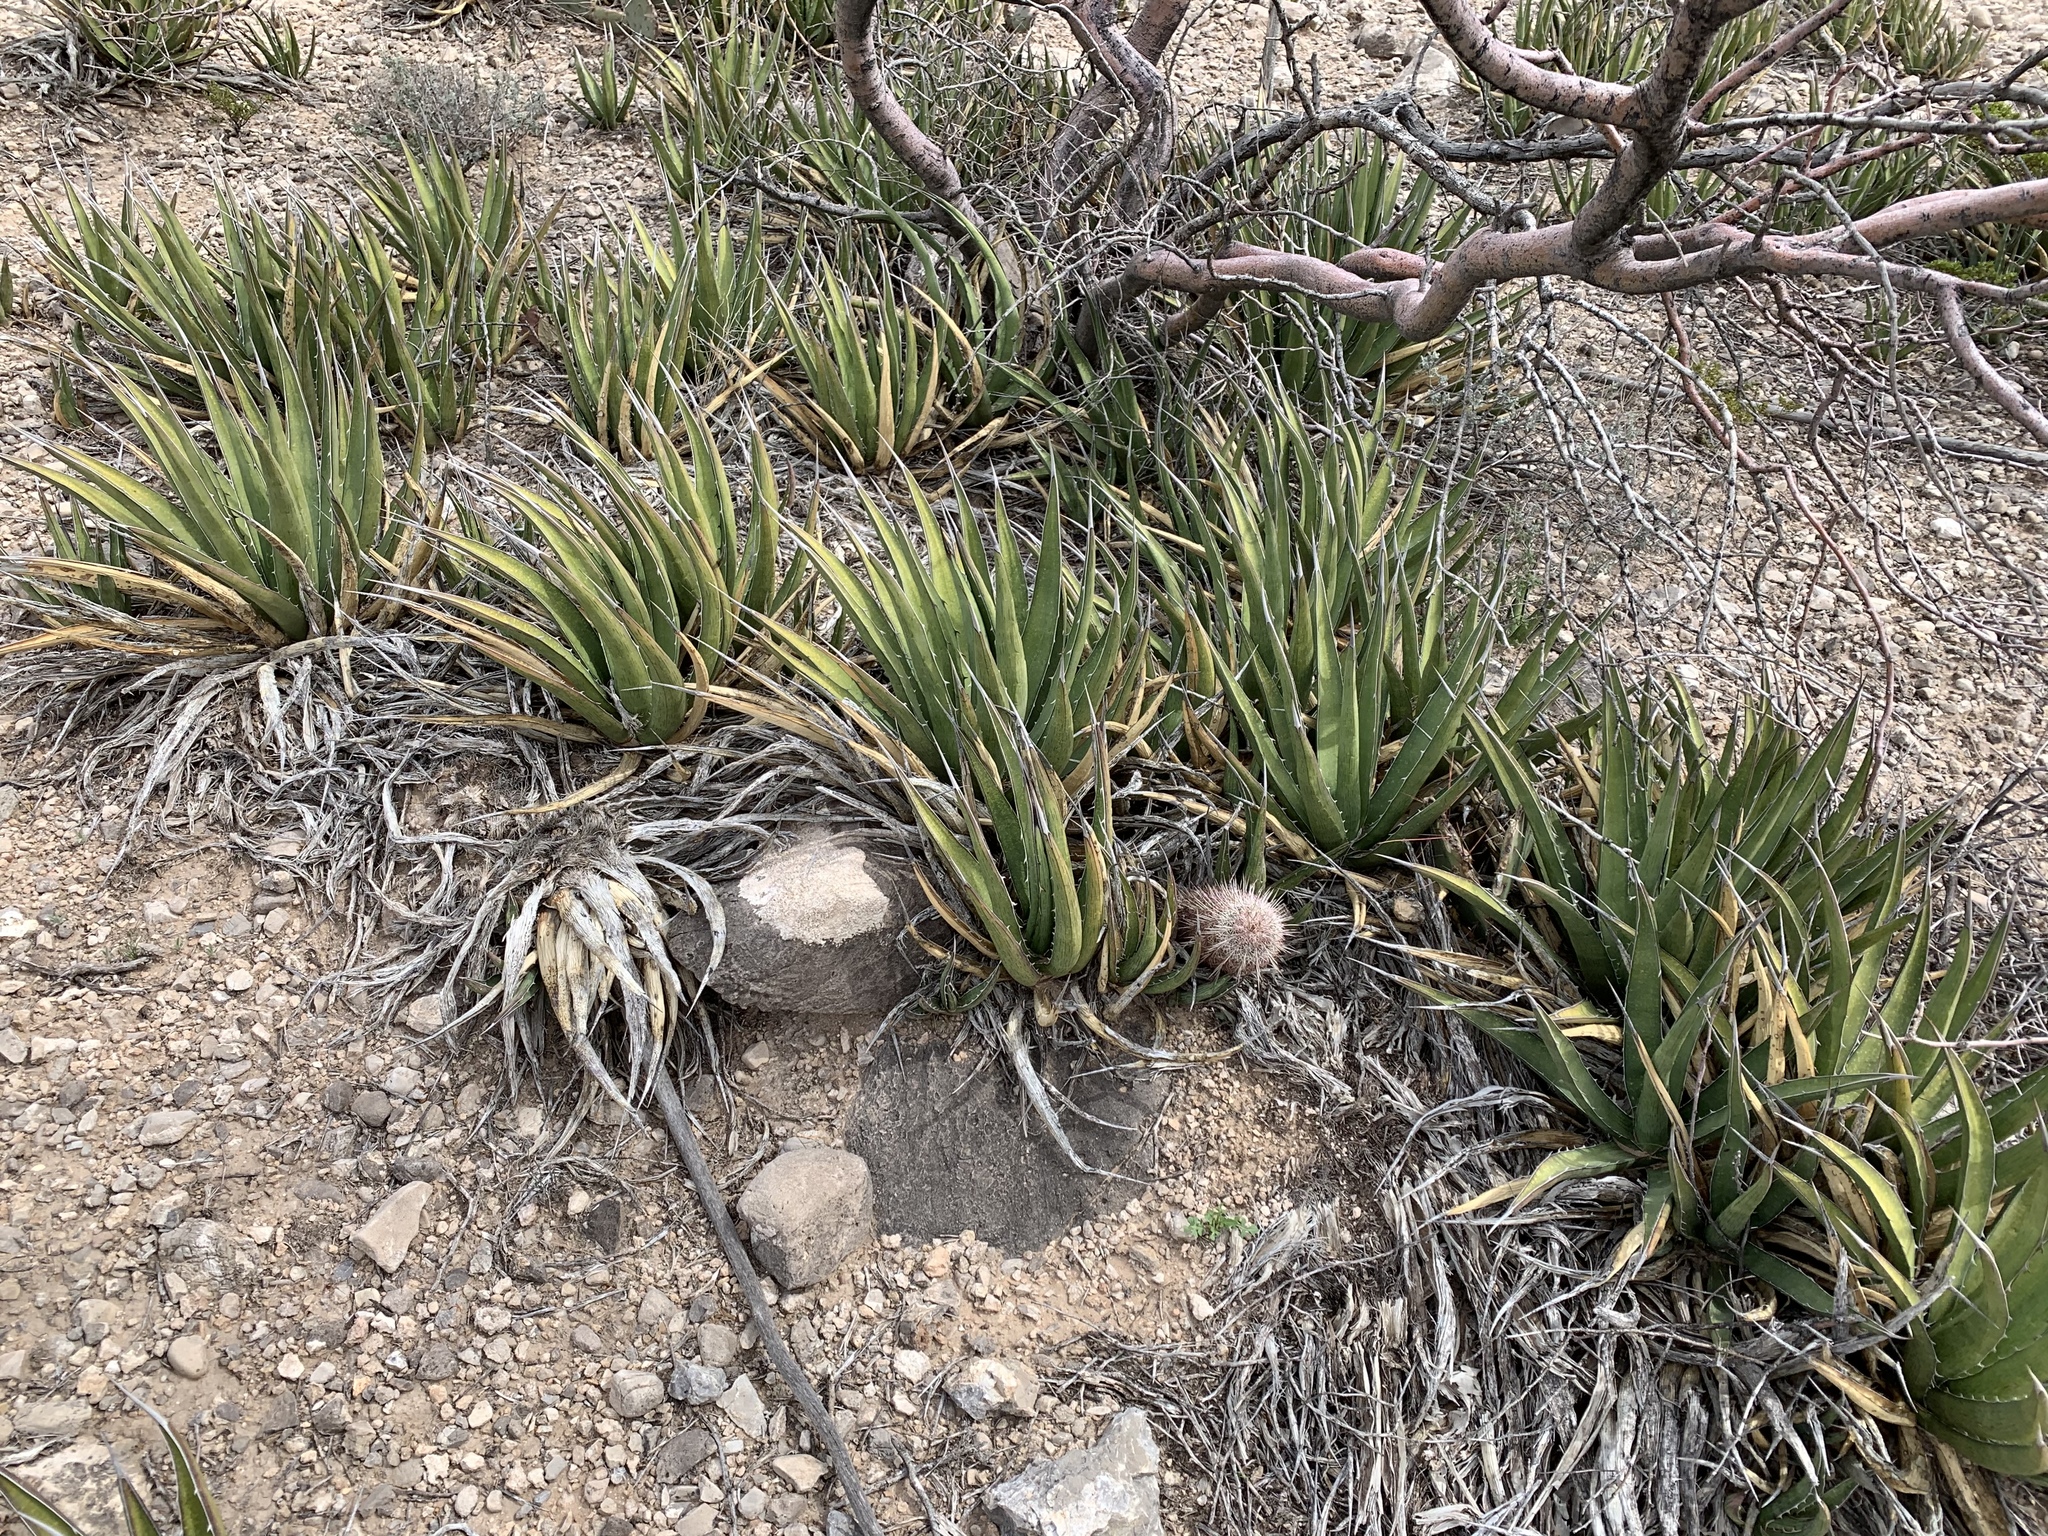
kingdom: Plantae
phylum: Tracheophyta
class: Liliopsida
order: Asparagales
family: Asparagaceae
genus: Agave
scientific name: Agave lechuguilla
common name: Lecheguilla agave
